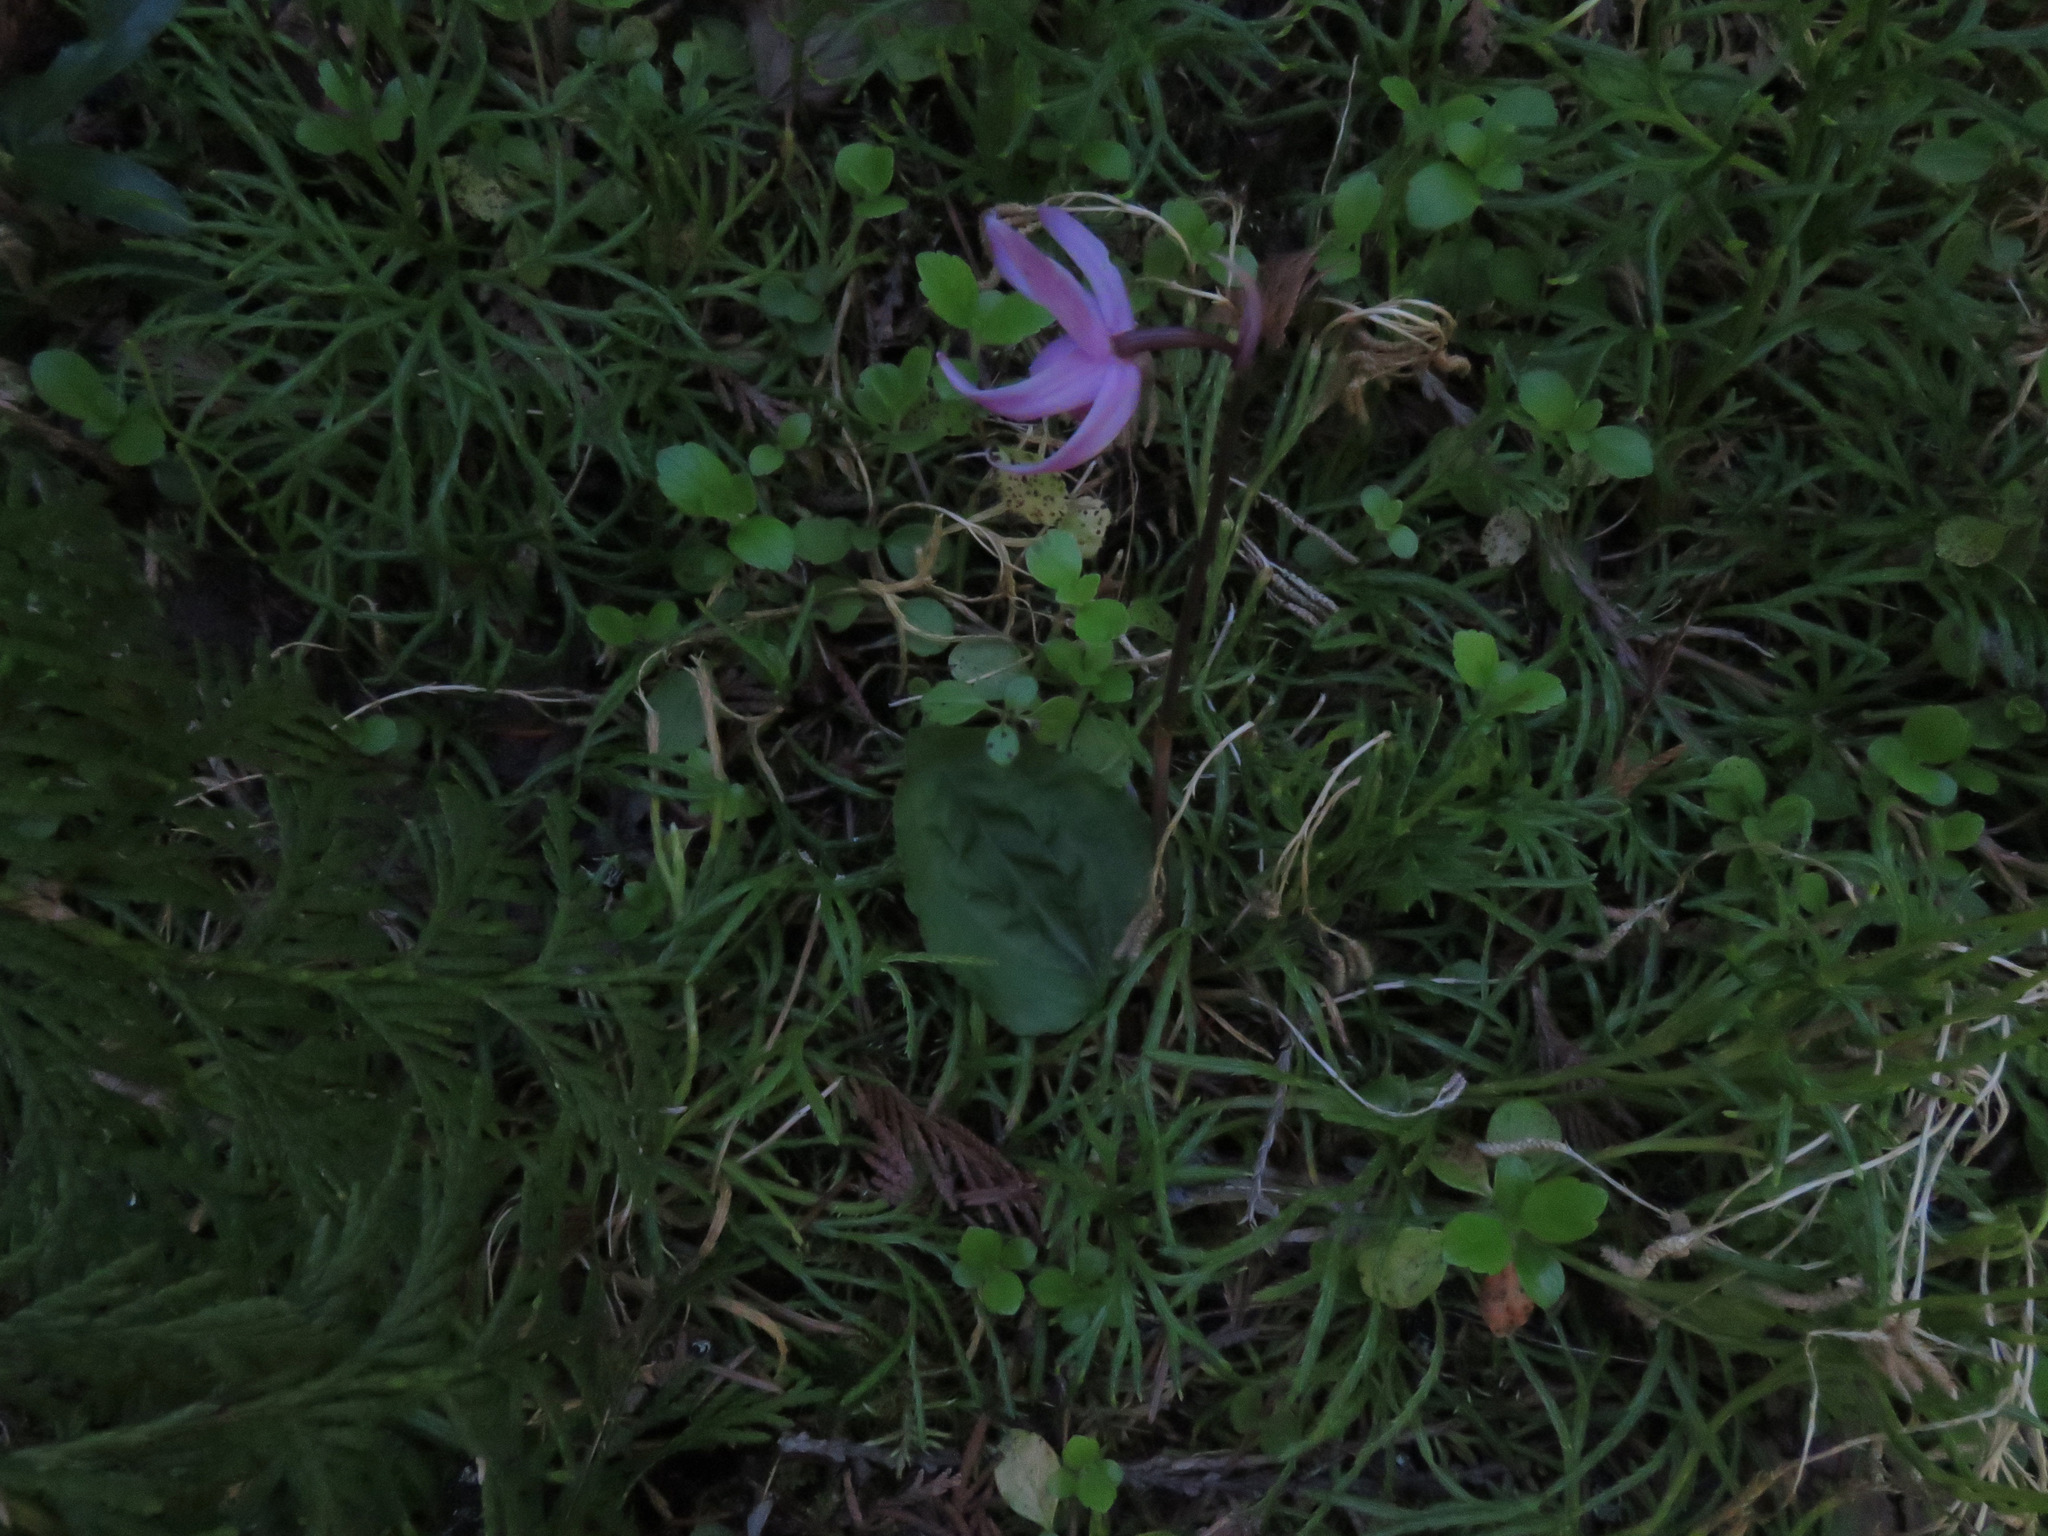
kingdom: Plantae
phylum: Tracheophyta
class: Liliopsida
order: Asparagales
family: Orchidaceae
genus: Calypso
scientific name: Calypso bulbosa
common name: Calypso
